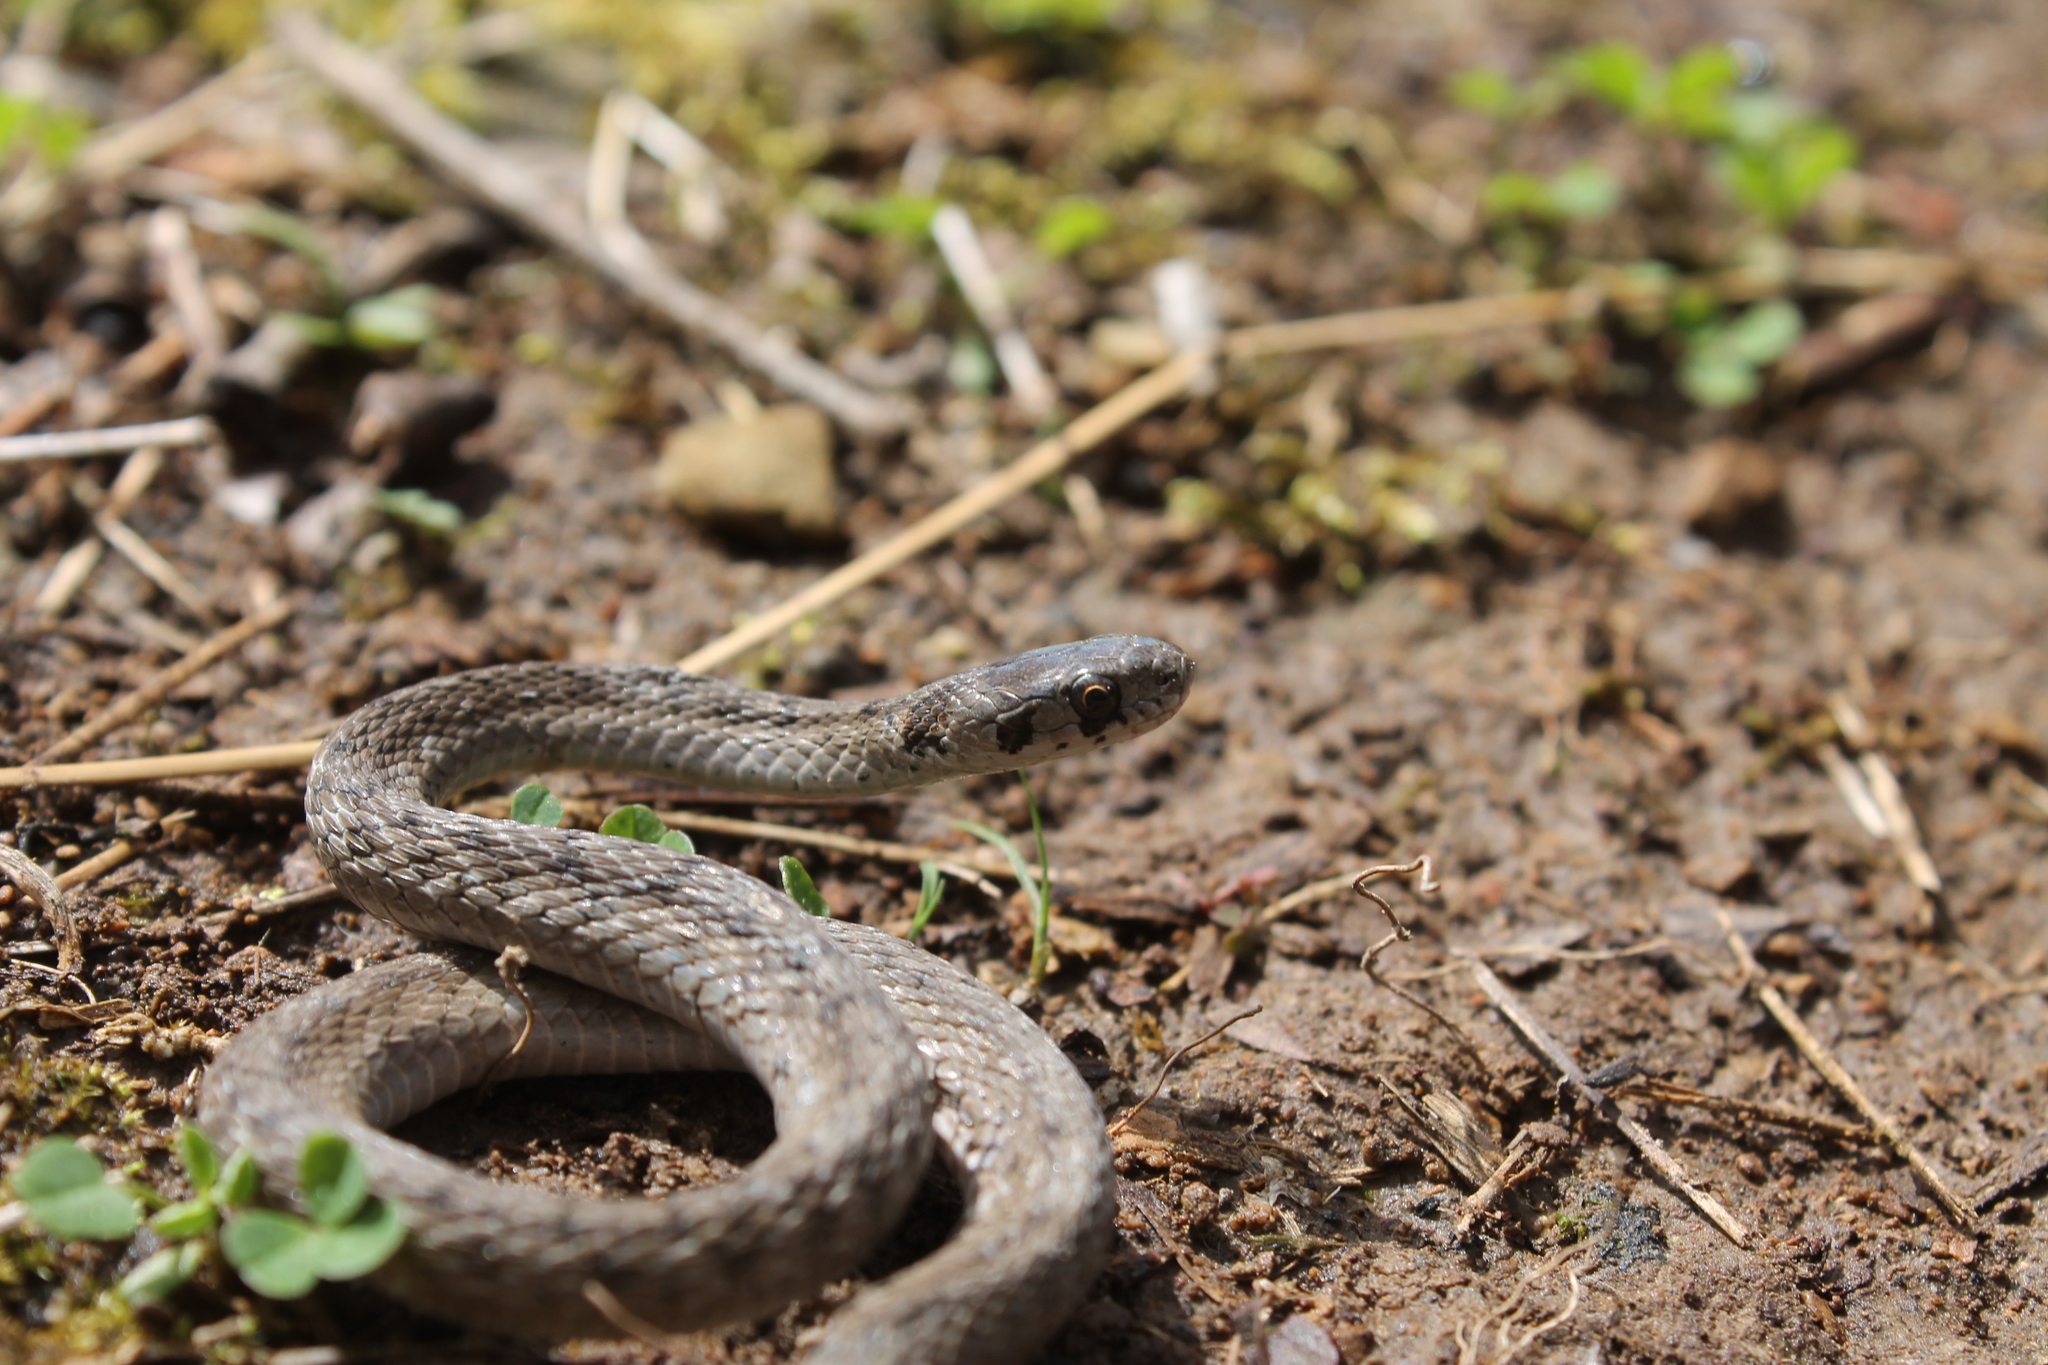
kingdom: Animalia
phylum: Chordata
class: Squamata
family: Colubridae
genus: Storeria
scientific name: Storeria dekayi
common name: (dekay’s) brown snake
